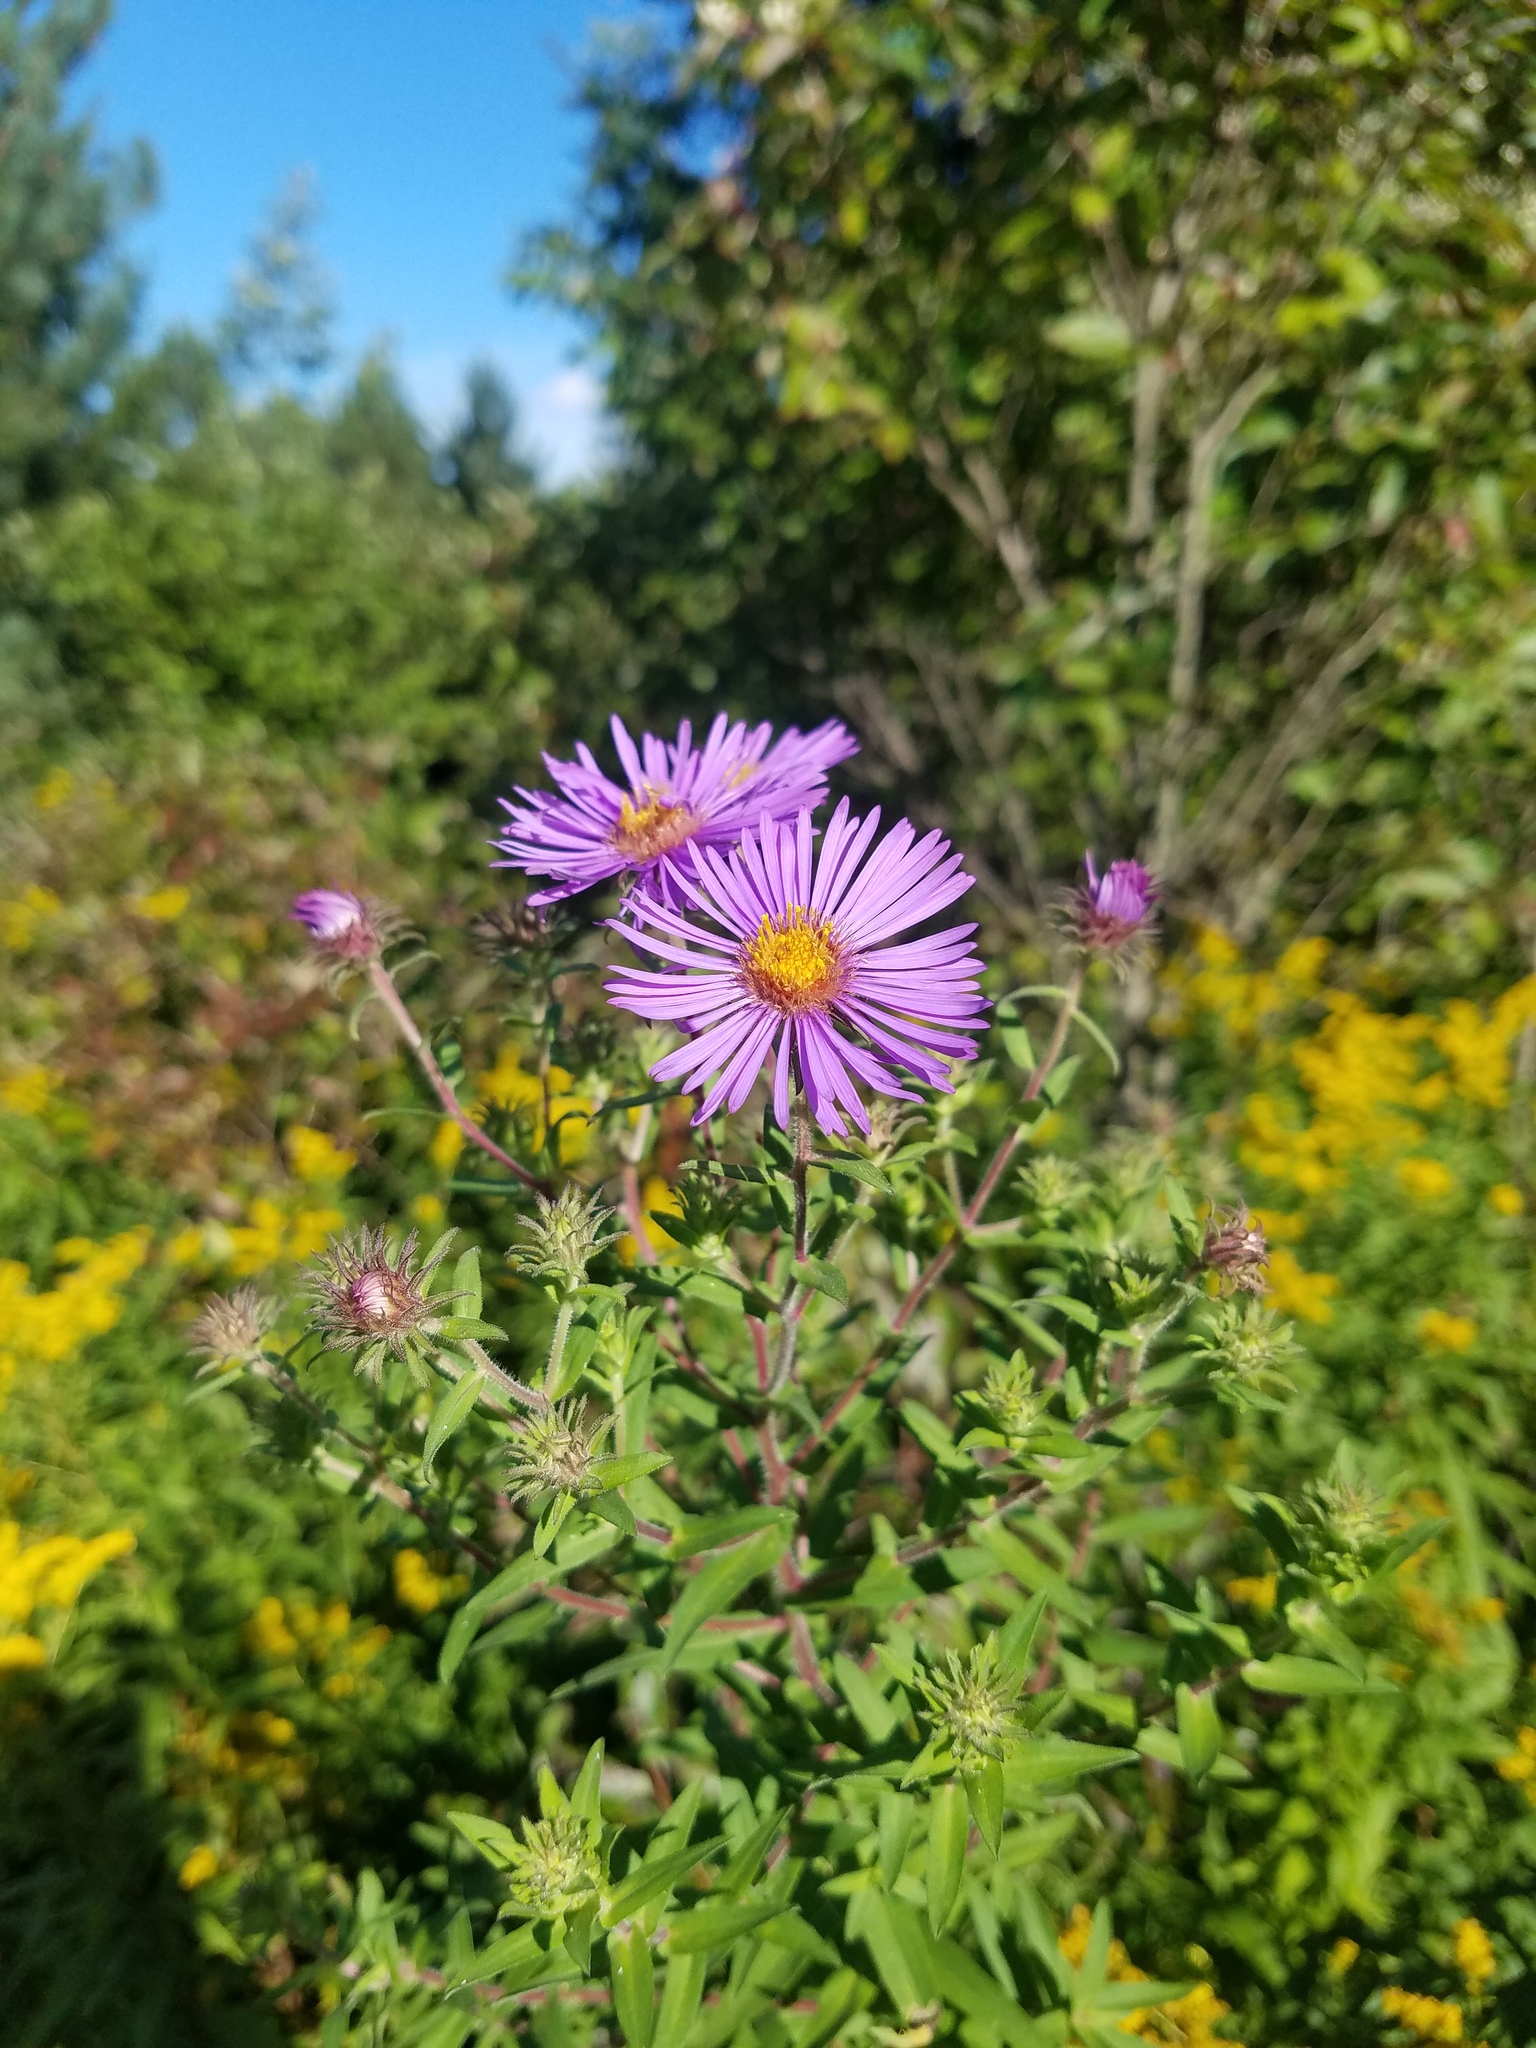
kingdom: Plantae
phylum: Tracheophyta
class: Magnoliopsida
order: Asterales
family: Asteraceae
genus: Symphyotrichum
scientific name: Symphyotrichum novae-angliae
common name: Michaelmas daisy
